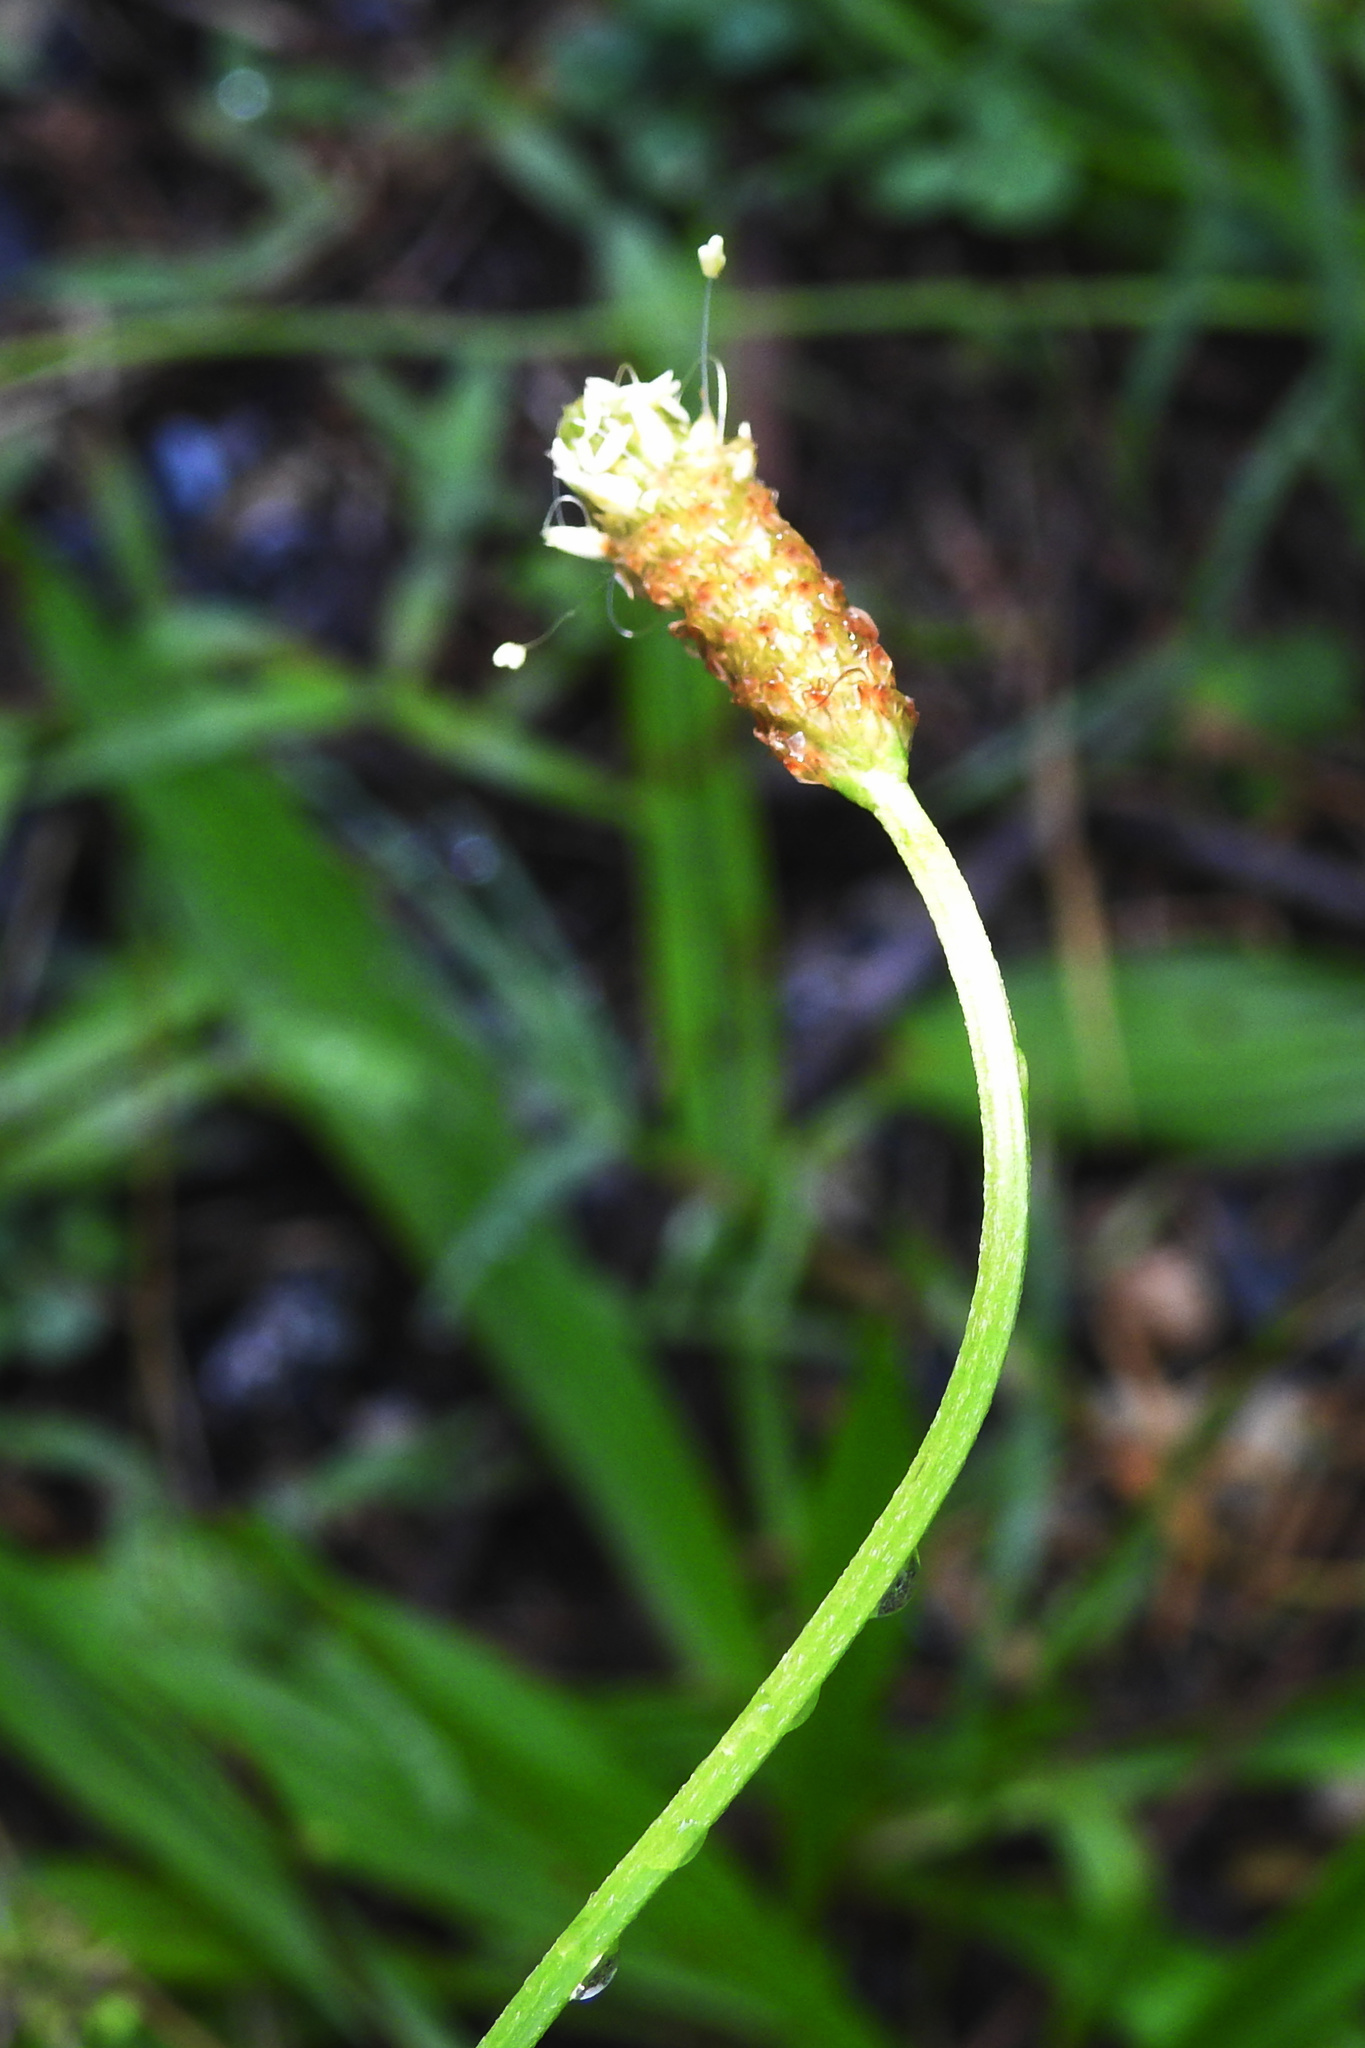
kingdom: Plantae
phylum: Tracheophyta
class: Magnoliopsida
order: Lamiales
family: Plantaginaceae
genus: Plantago
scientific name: Plantago lanceolata
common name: Ribwort plantain
